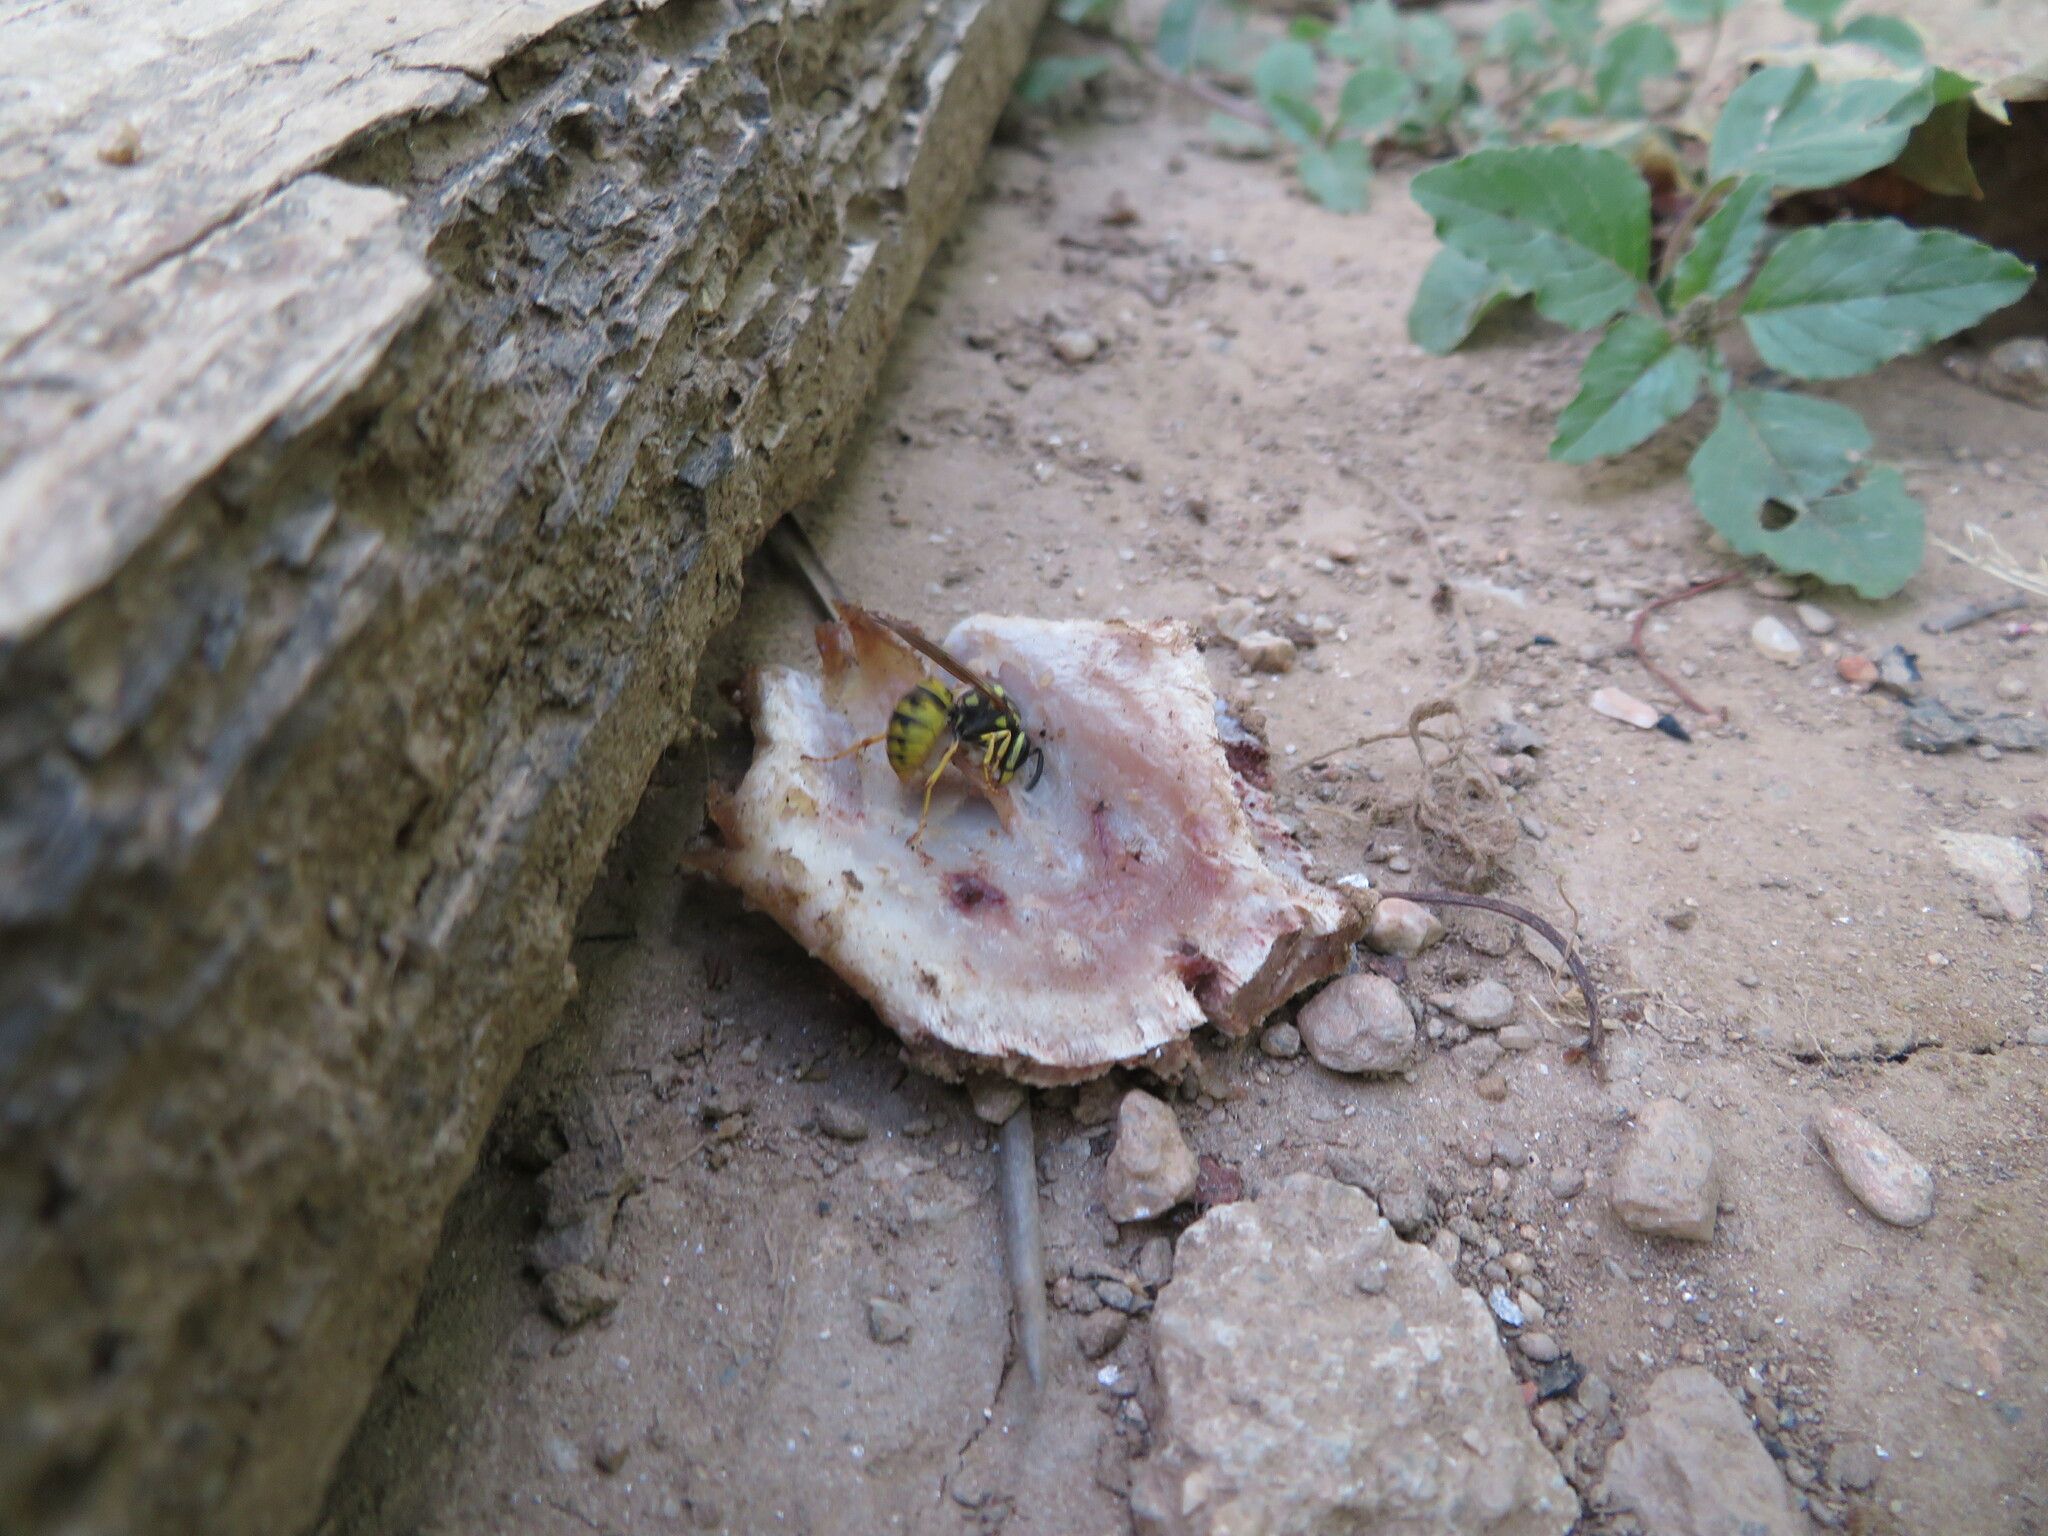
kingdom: Animalia
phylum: Arthropoda
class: Insecta
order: Hymenoptera
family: Vespidae
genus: Vespula
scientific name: Vespula germanica
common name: German wasp
